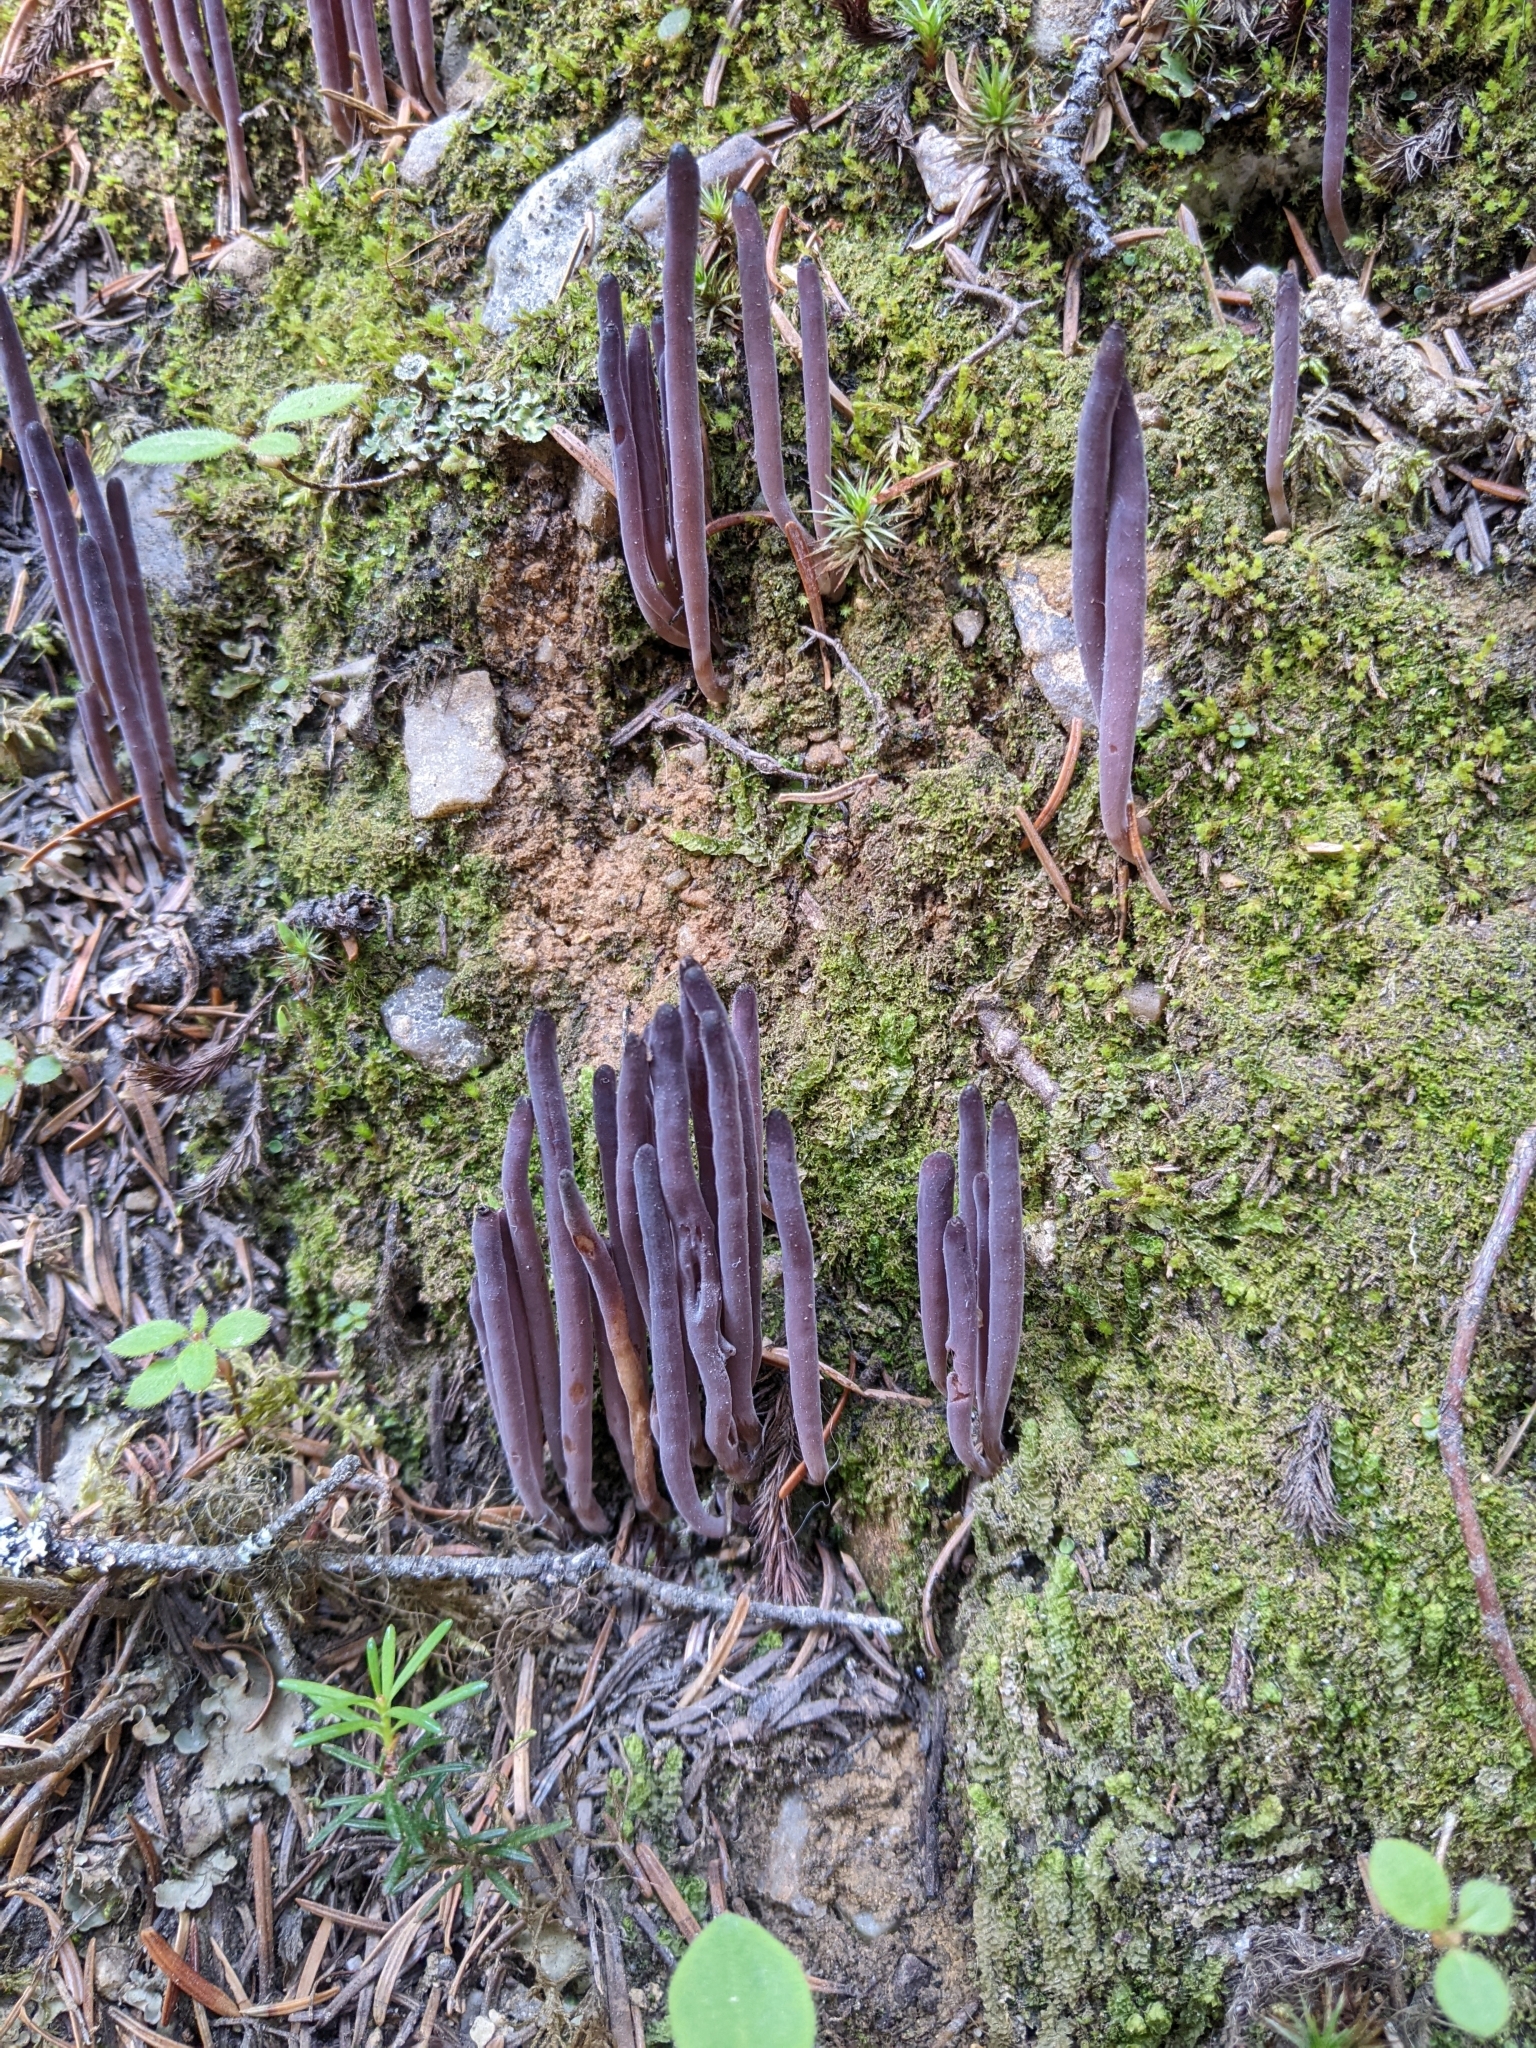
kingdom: Fungi
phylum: Basidiomycota
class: Agaricomycetes
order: Hymenochaetales
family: Rickenellaceae
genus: Alloclavaria
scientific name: Alloclavaria purpurea
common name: Purple spindles
